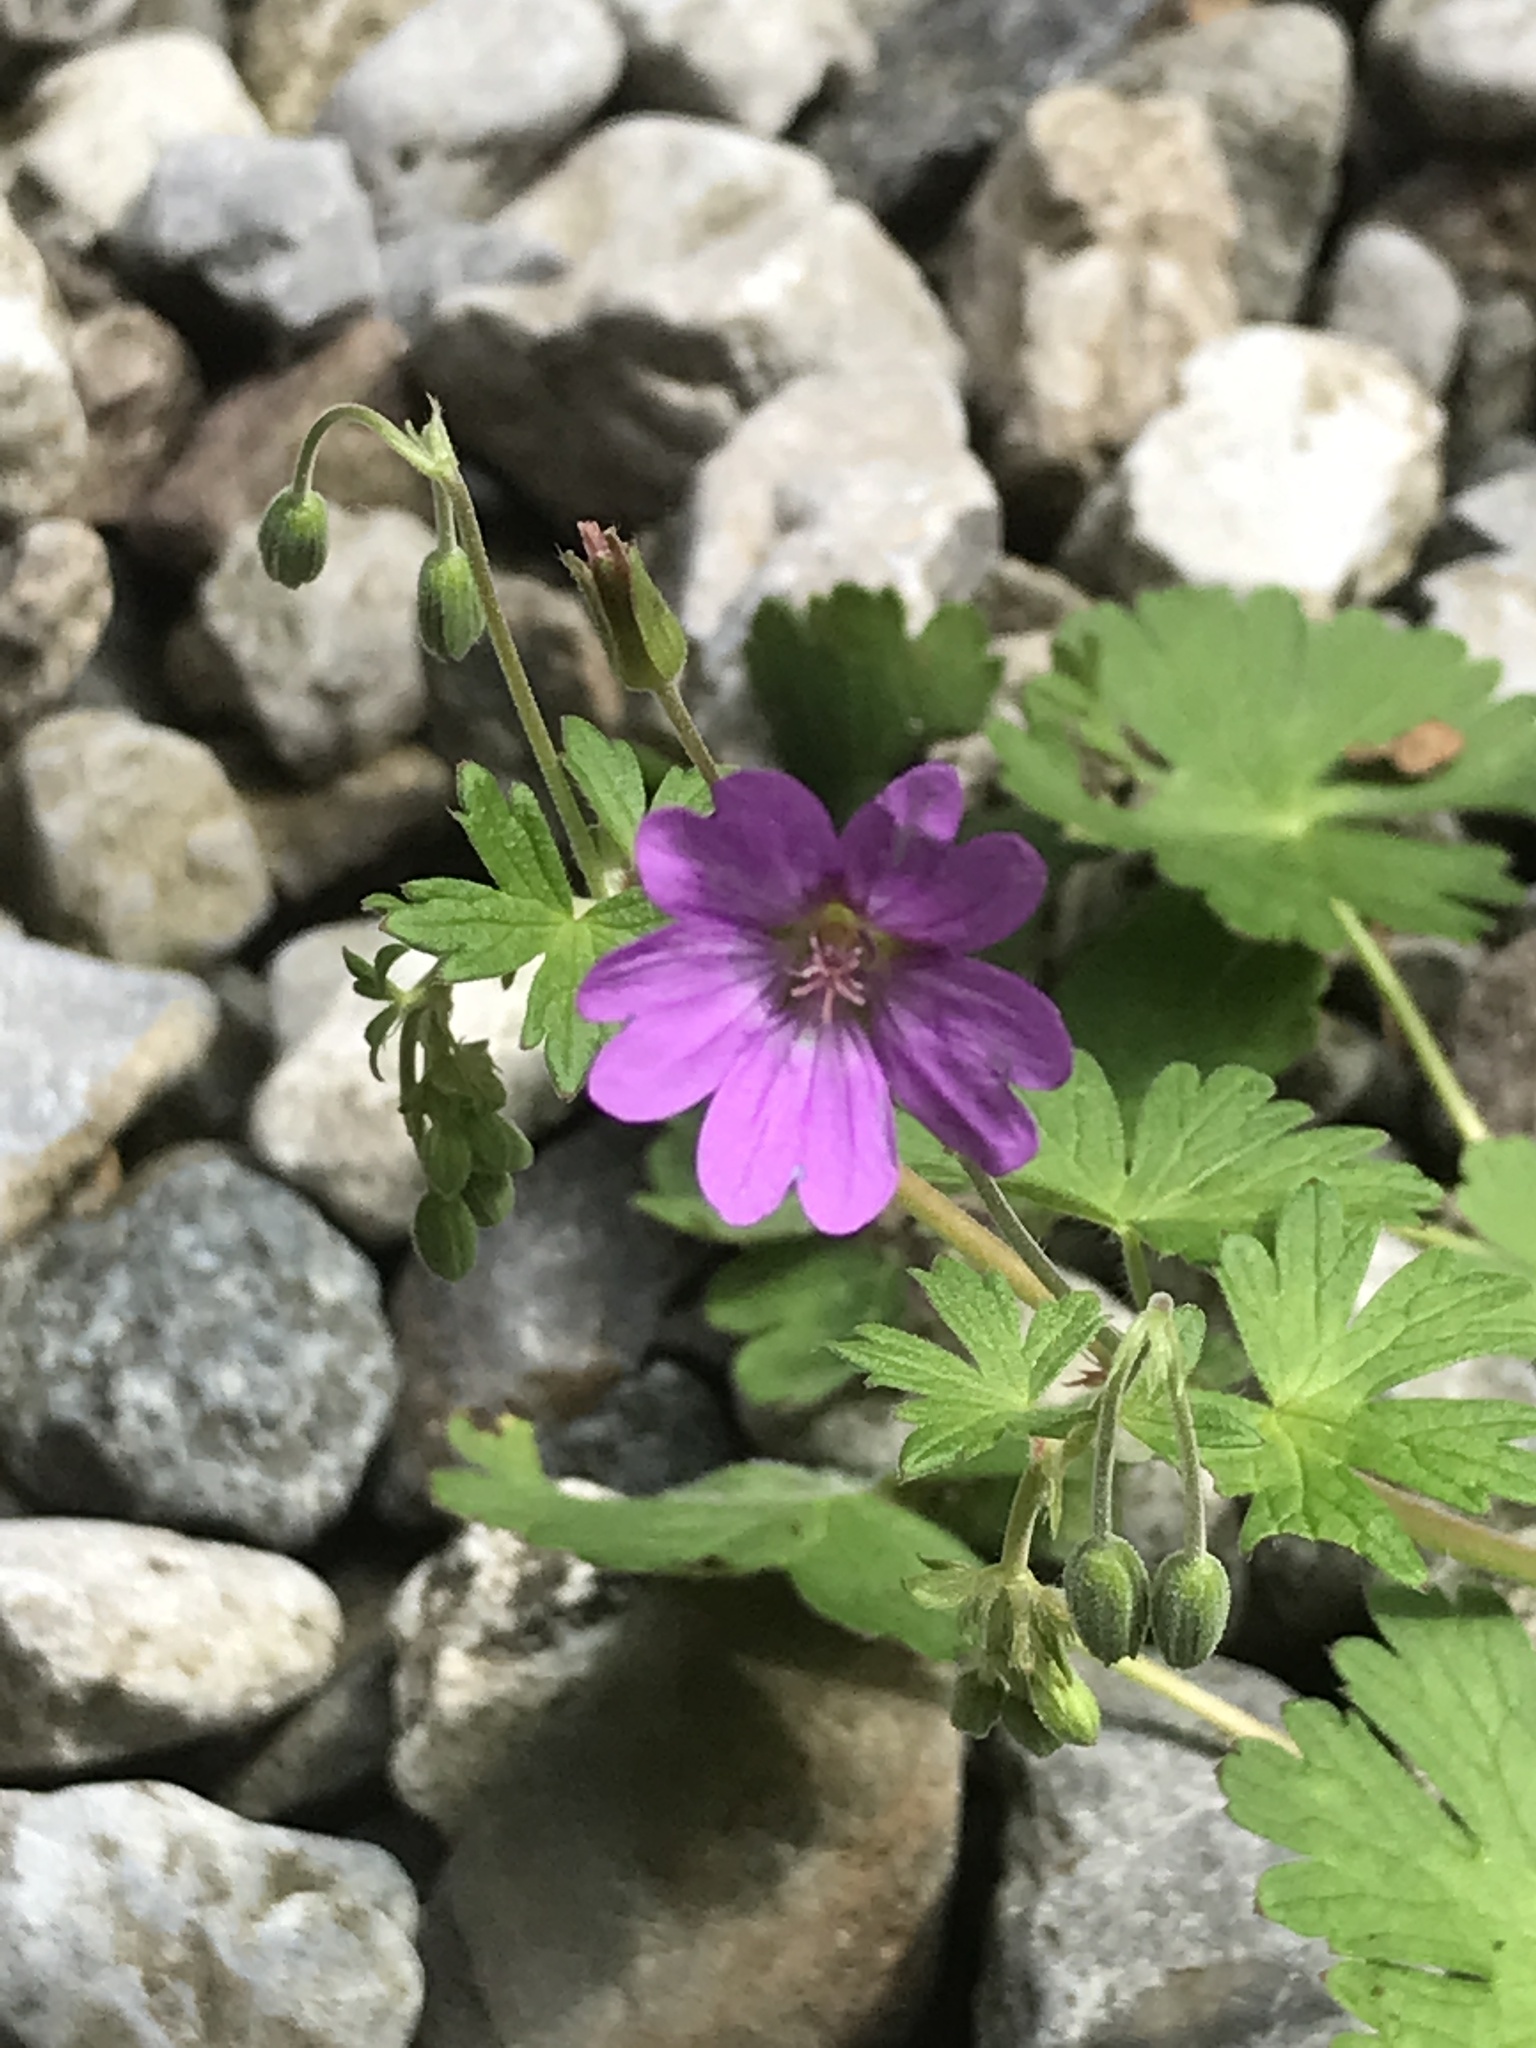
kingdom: Plantae
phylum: Tracheophyta
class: Magnoliopsida
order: Geraniales
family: Geraniaceae
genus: Geranium
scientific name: Geranium pyrenaicum
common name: Hedgerow crane's-bill
